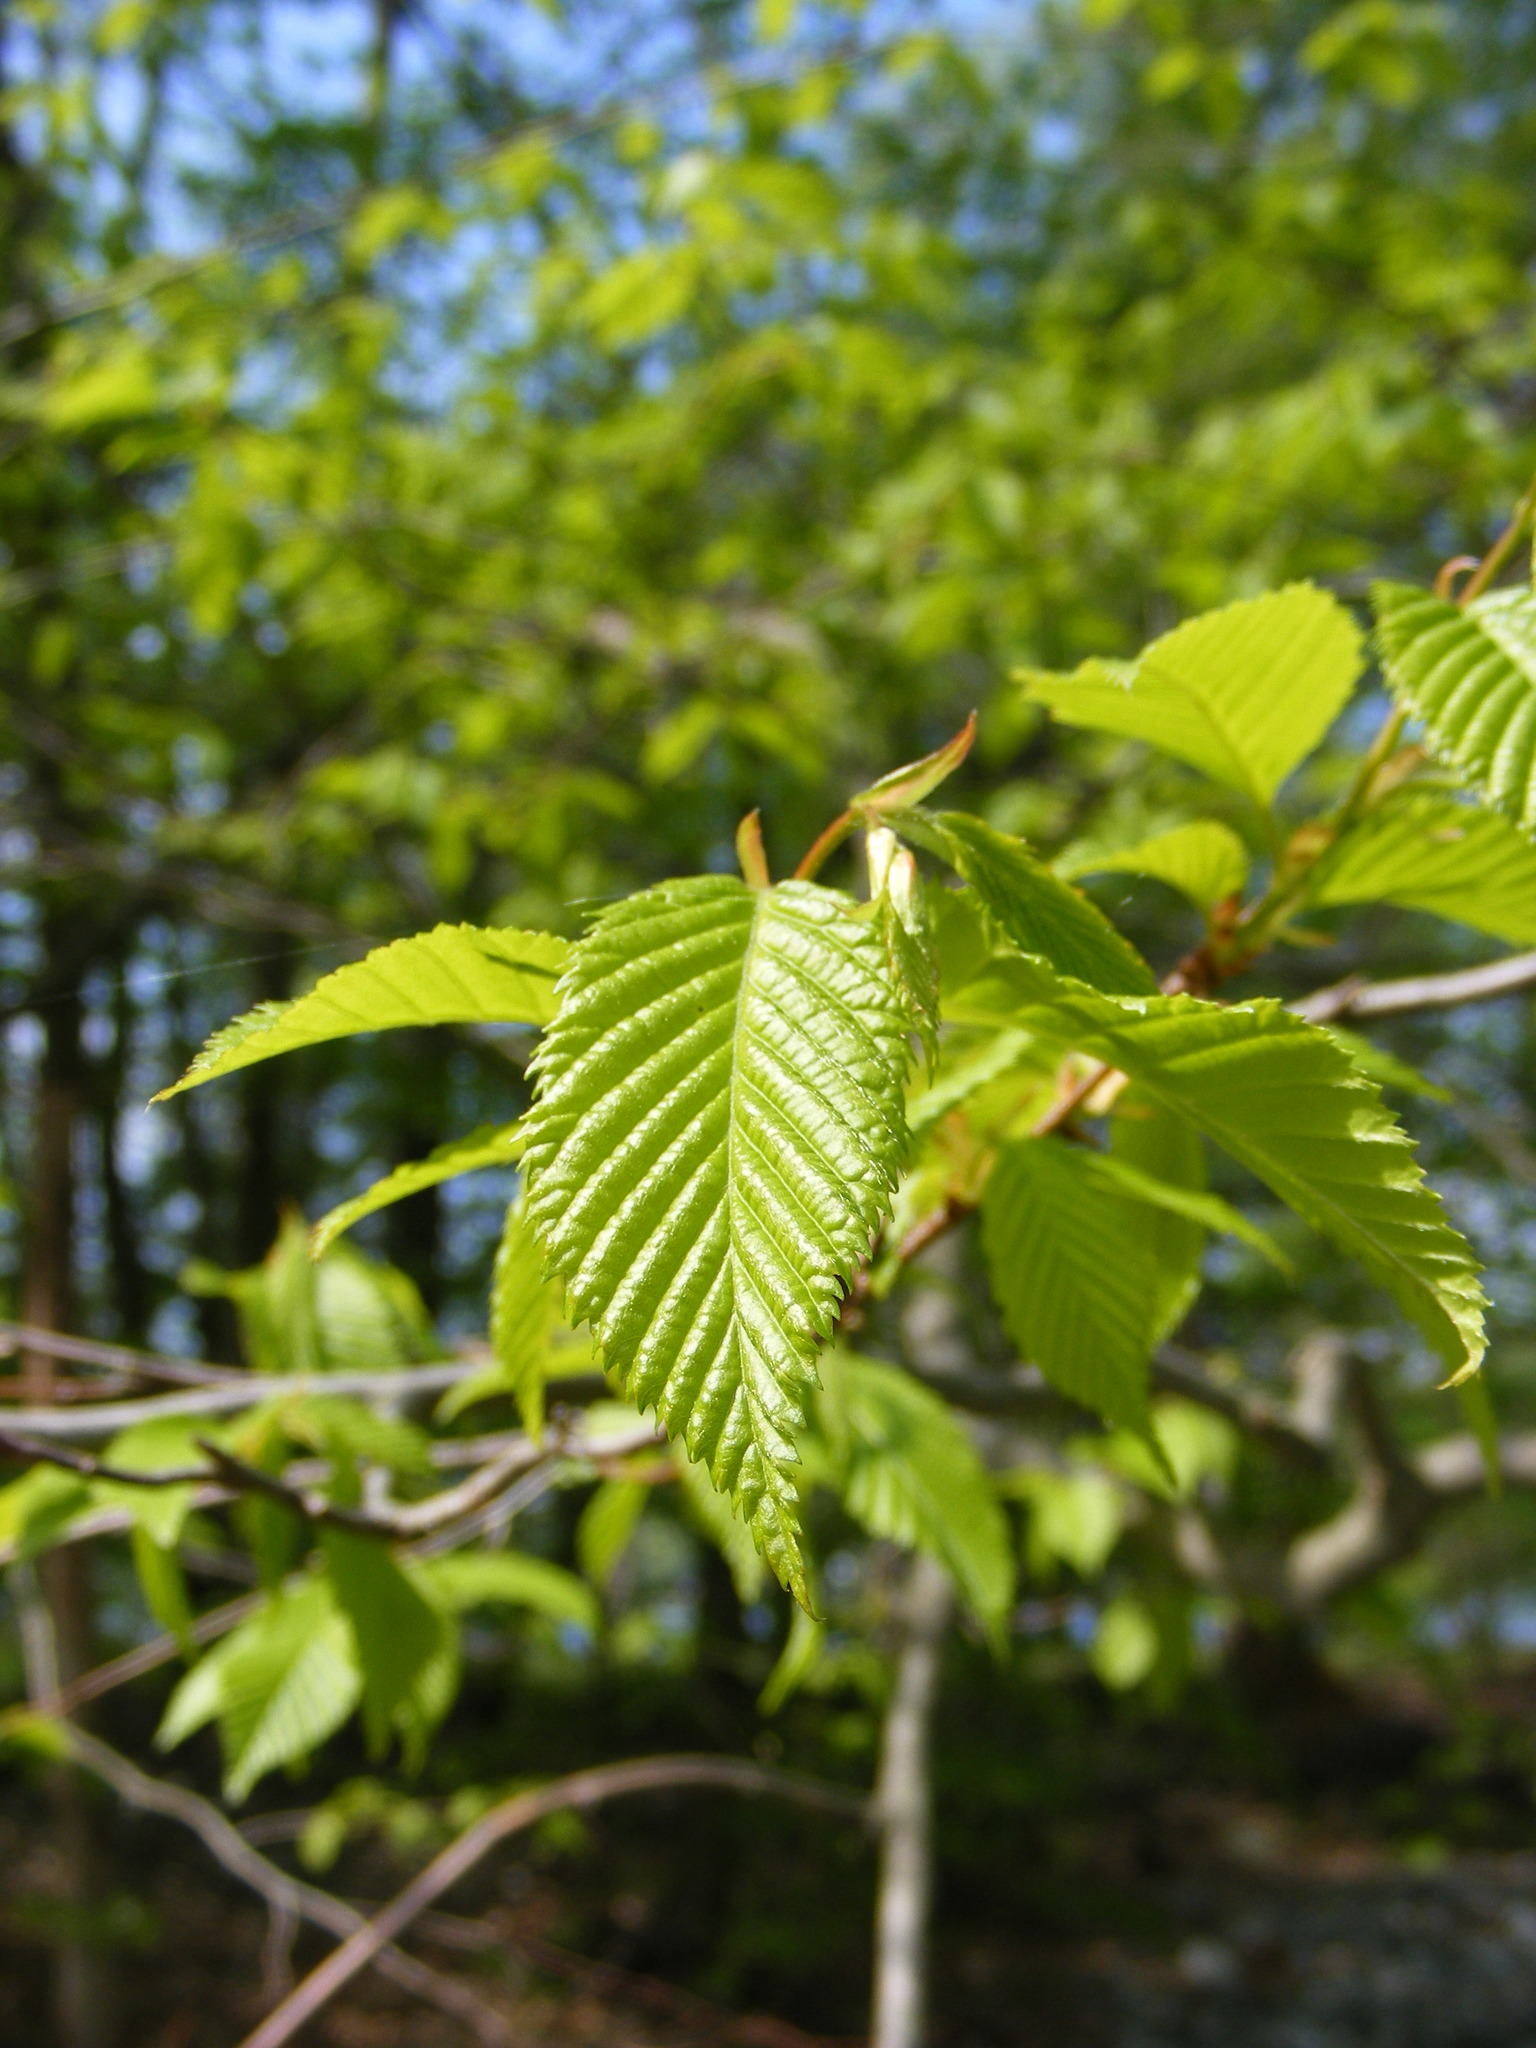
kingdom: Plantae
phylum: Tracheophyta
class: Magnoliopsida
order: Fagales
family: Betulaceae
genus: Carpinus
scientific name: Carpinus caroliniana
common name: American hornbeam
